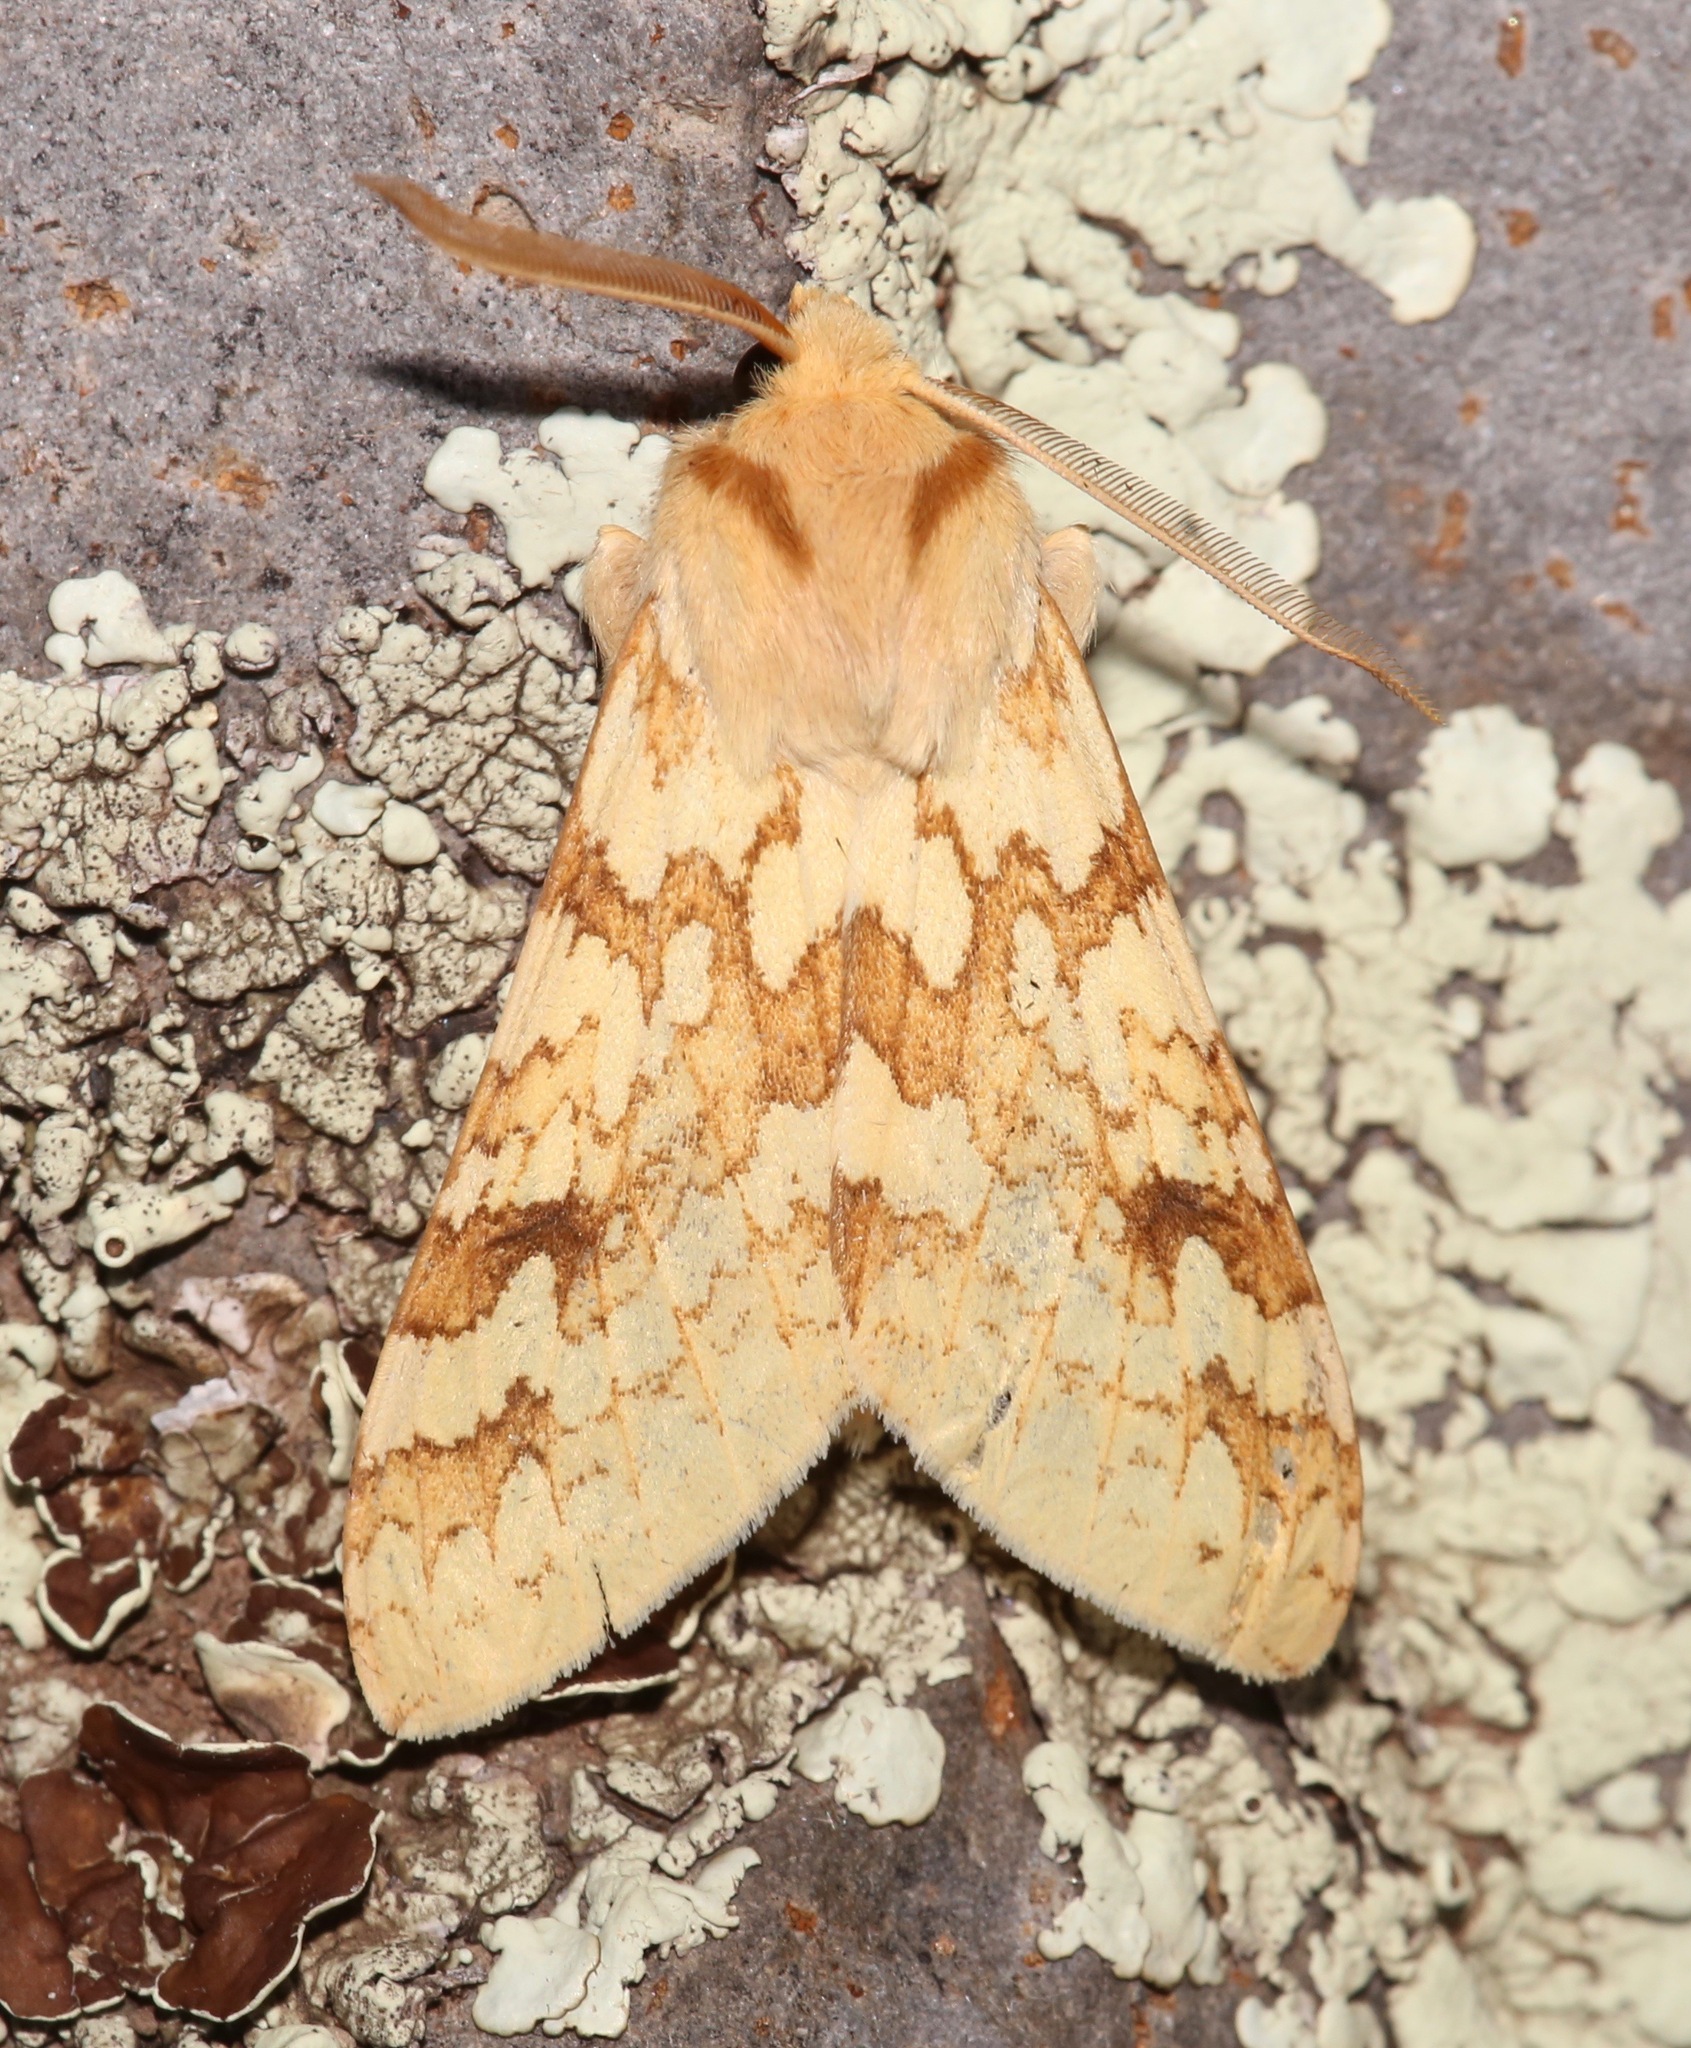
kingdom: Animalia
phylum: Arthropoda
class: Insecta
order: Lepidoptera
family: Erebidae
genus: Lophocampa
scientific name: Lophocampa maculata
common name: Spotted tussock moth
